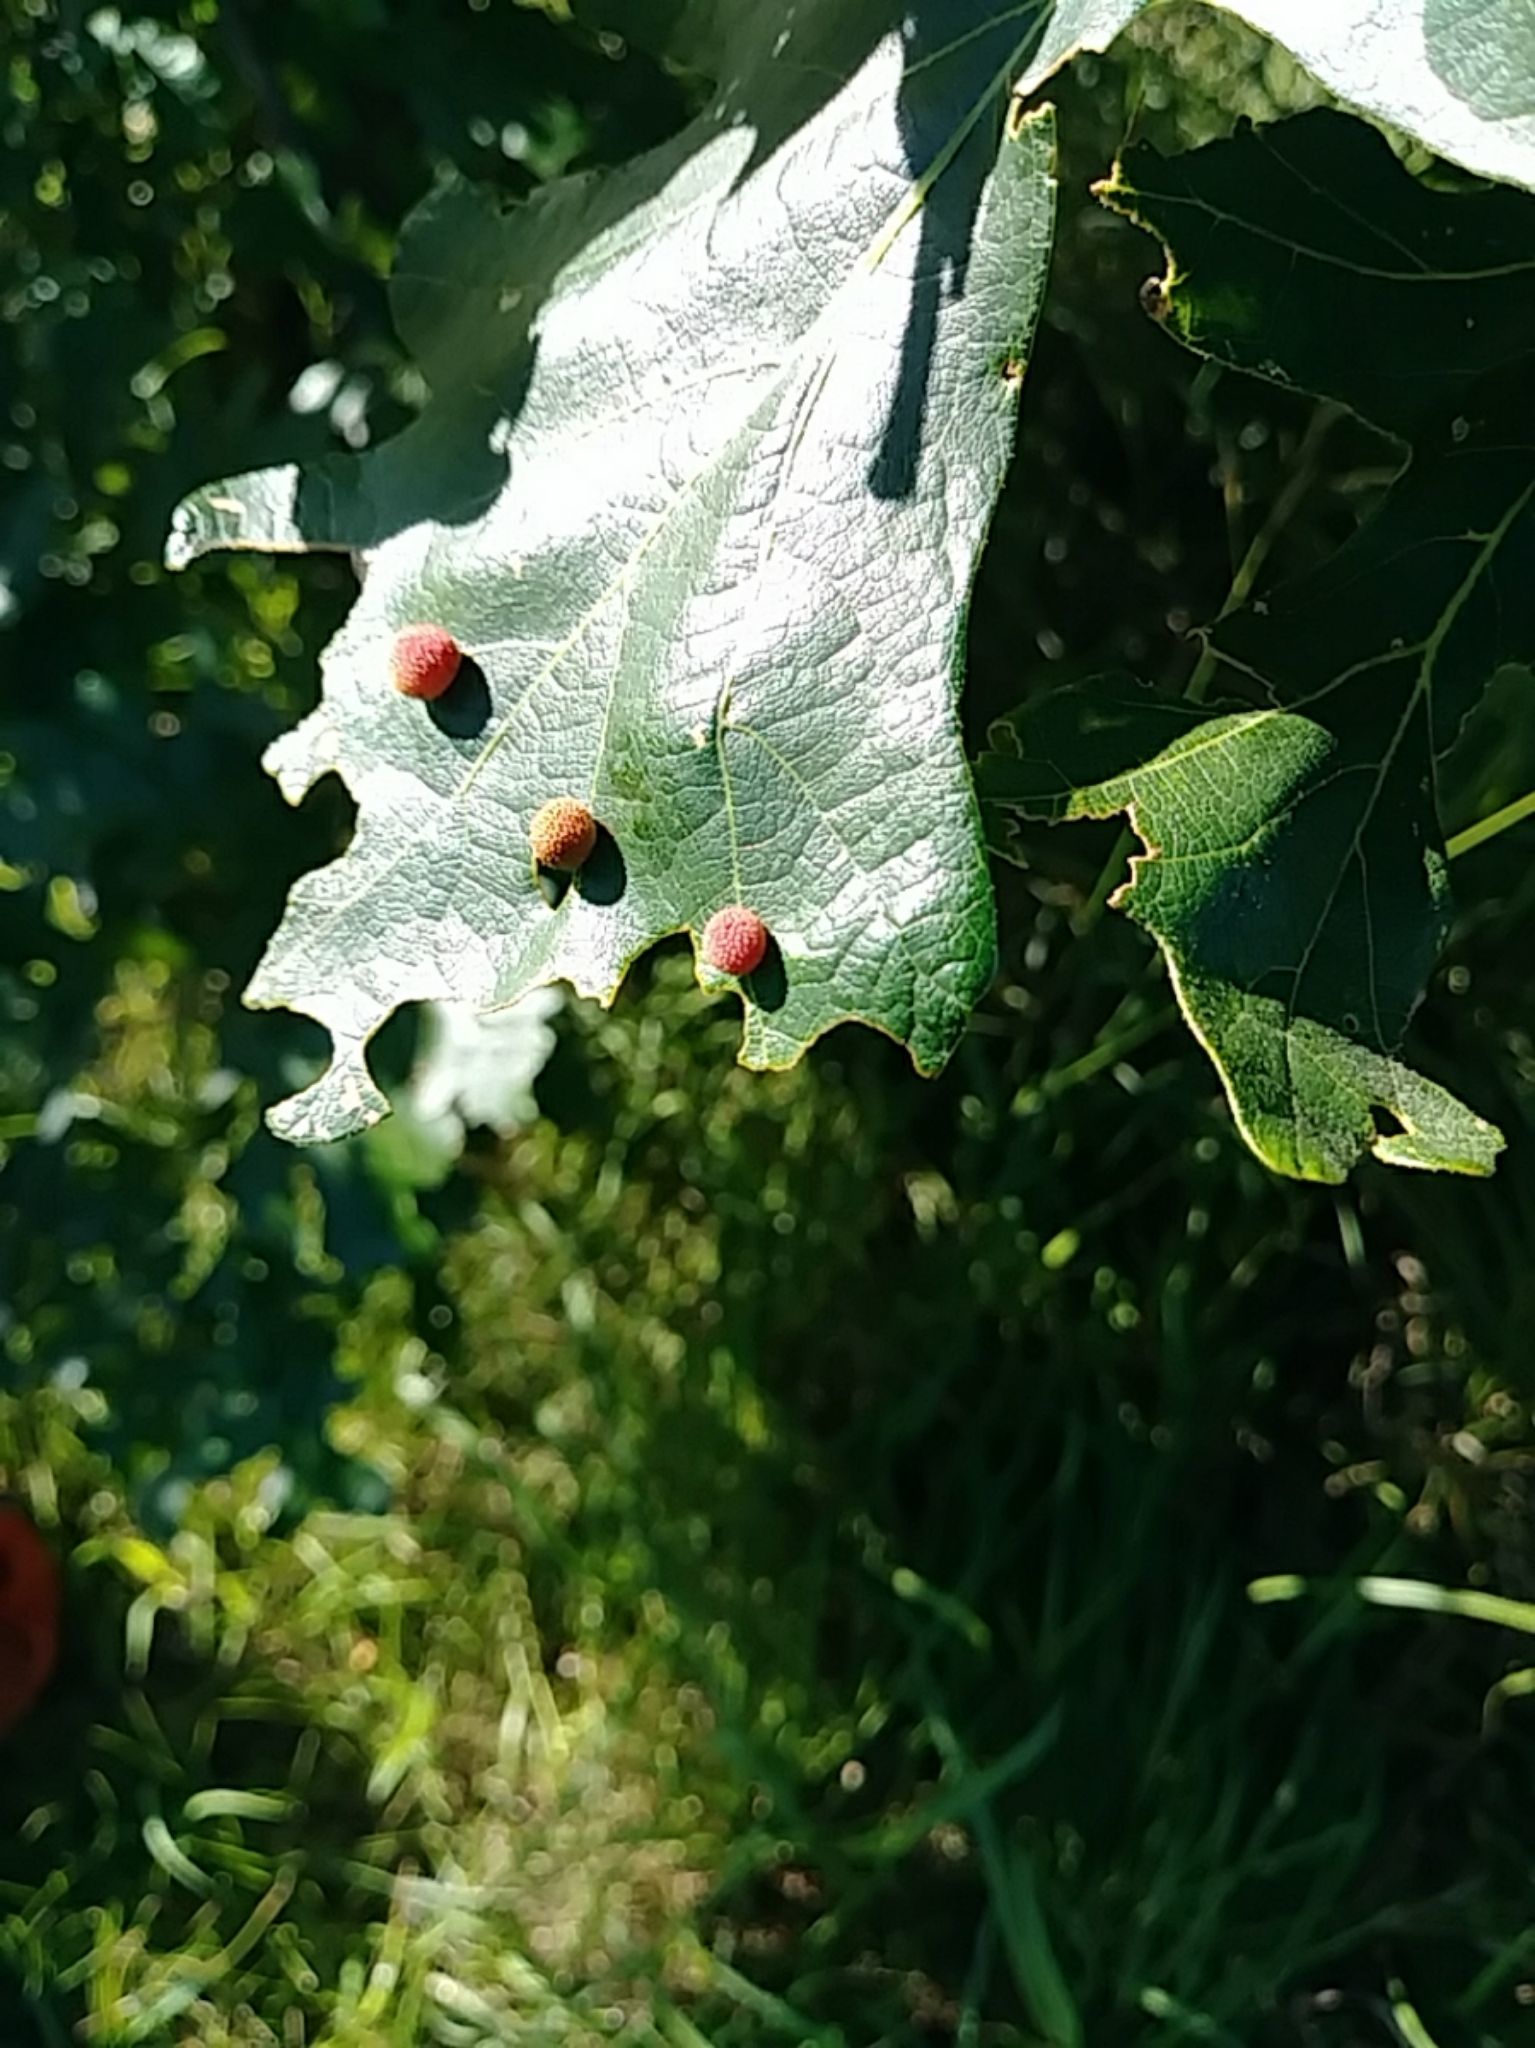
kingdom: Animalia
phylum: Arthropoda
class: Insecta
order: Hymenoptera
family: Cynipidae
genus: Acraspis
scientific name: Acraspis quercushirta
